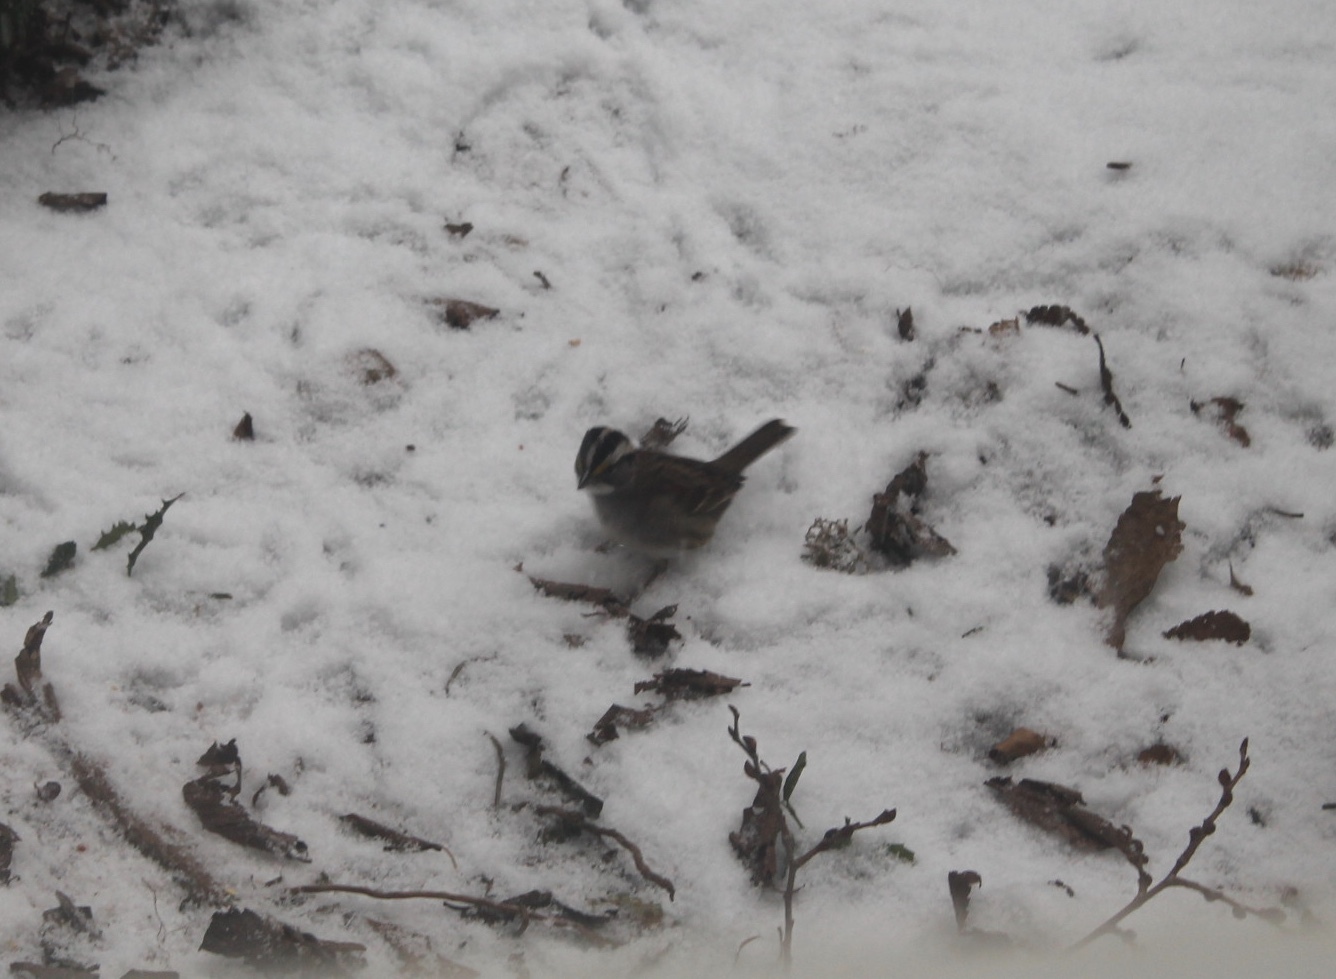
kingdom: Animalia
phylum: Chordata
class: Aves
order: Passeriformes
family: Passerellidae
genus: Zonotrichia
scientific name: Zonotrichia albicollis
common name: White-throated sparrow
